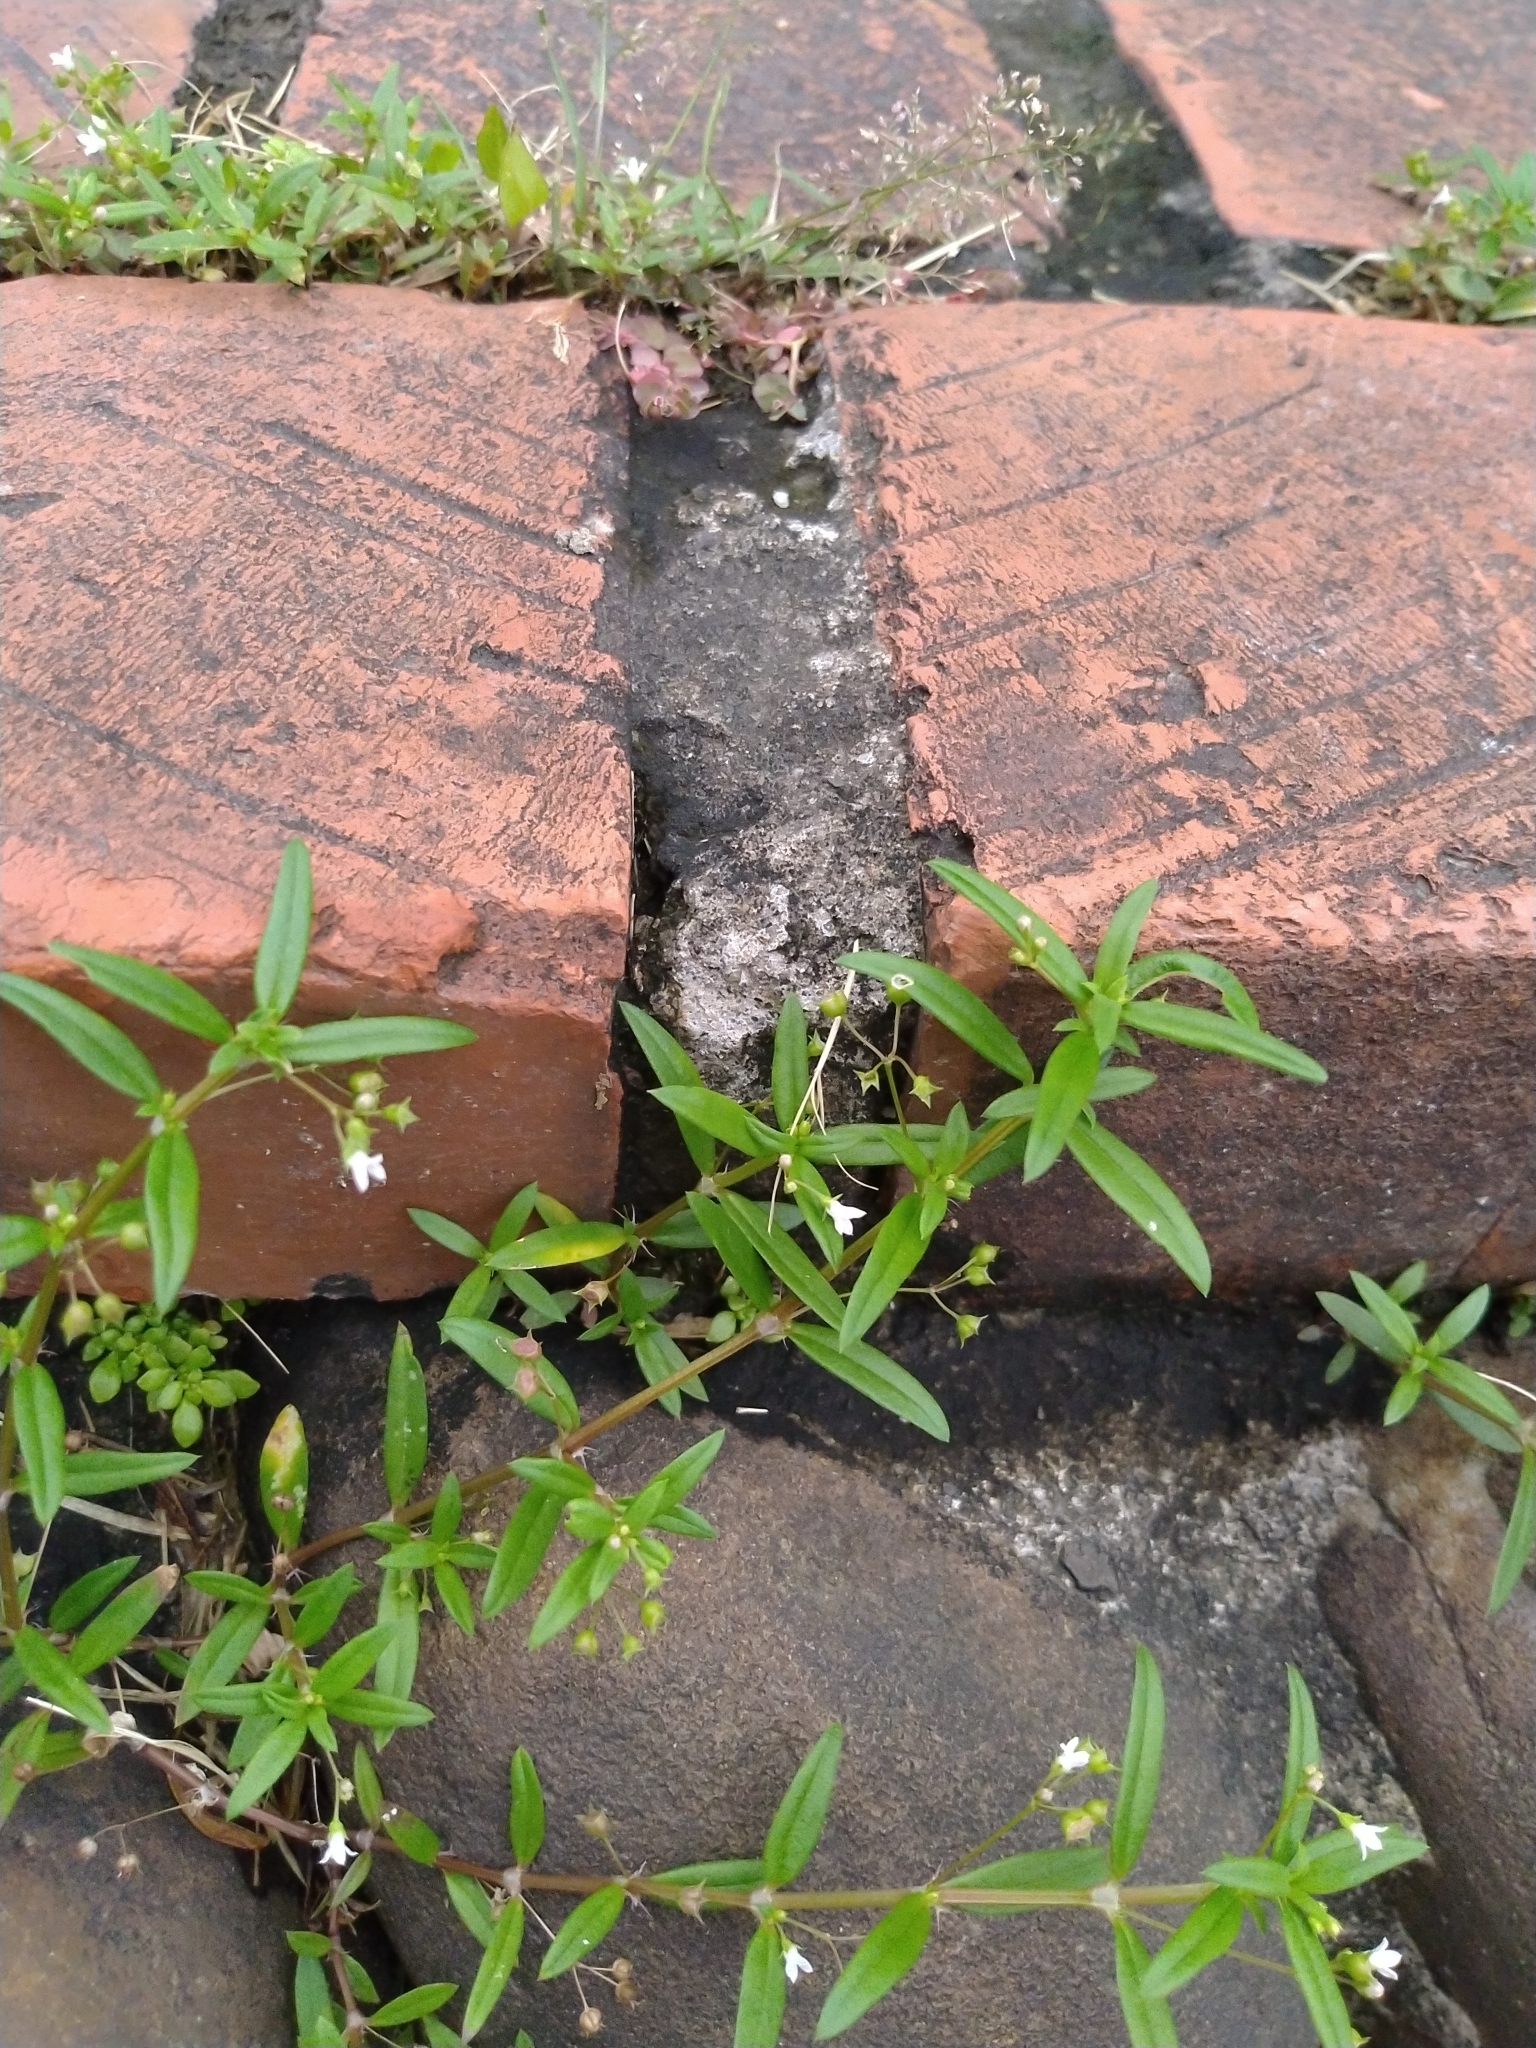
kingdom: Plantae
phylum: Tracheophyta
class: Magnoliopsida
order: Gentianales
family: Rubiaceae
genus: Oldenlandia
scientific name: Oldenlandia corymbosa
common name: Flat-top mille graines
